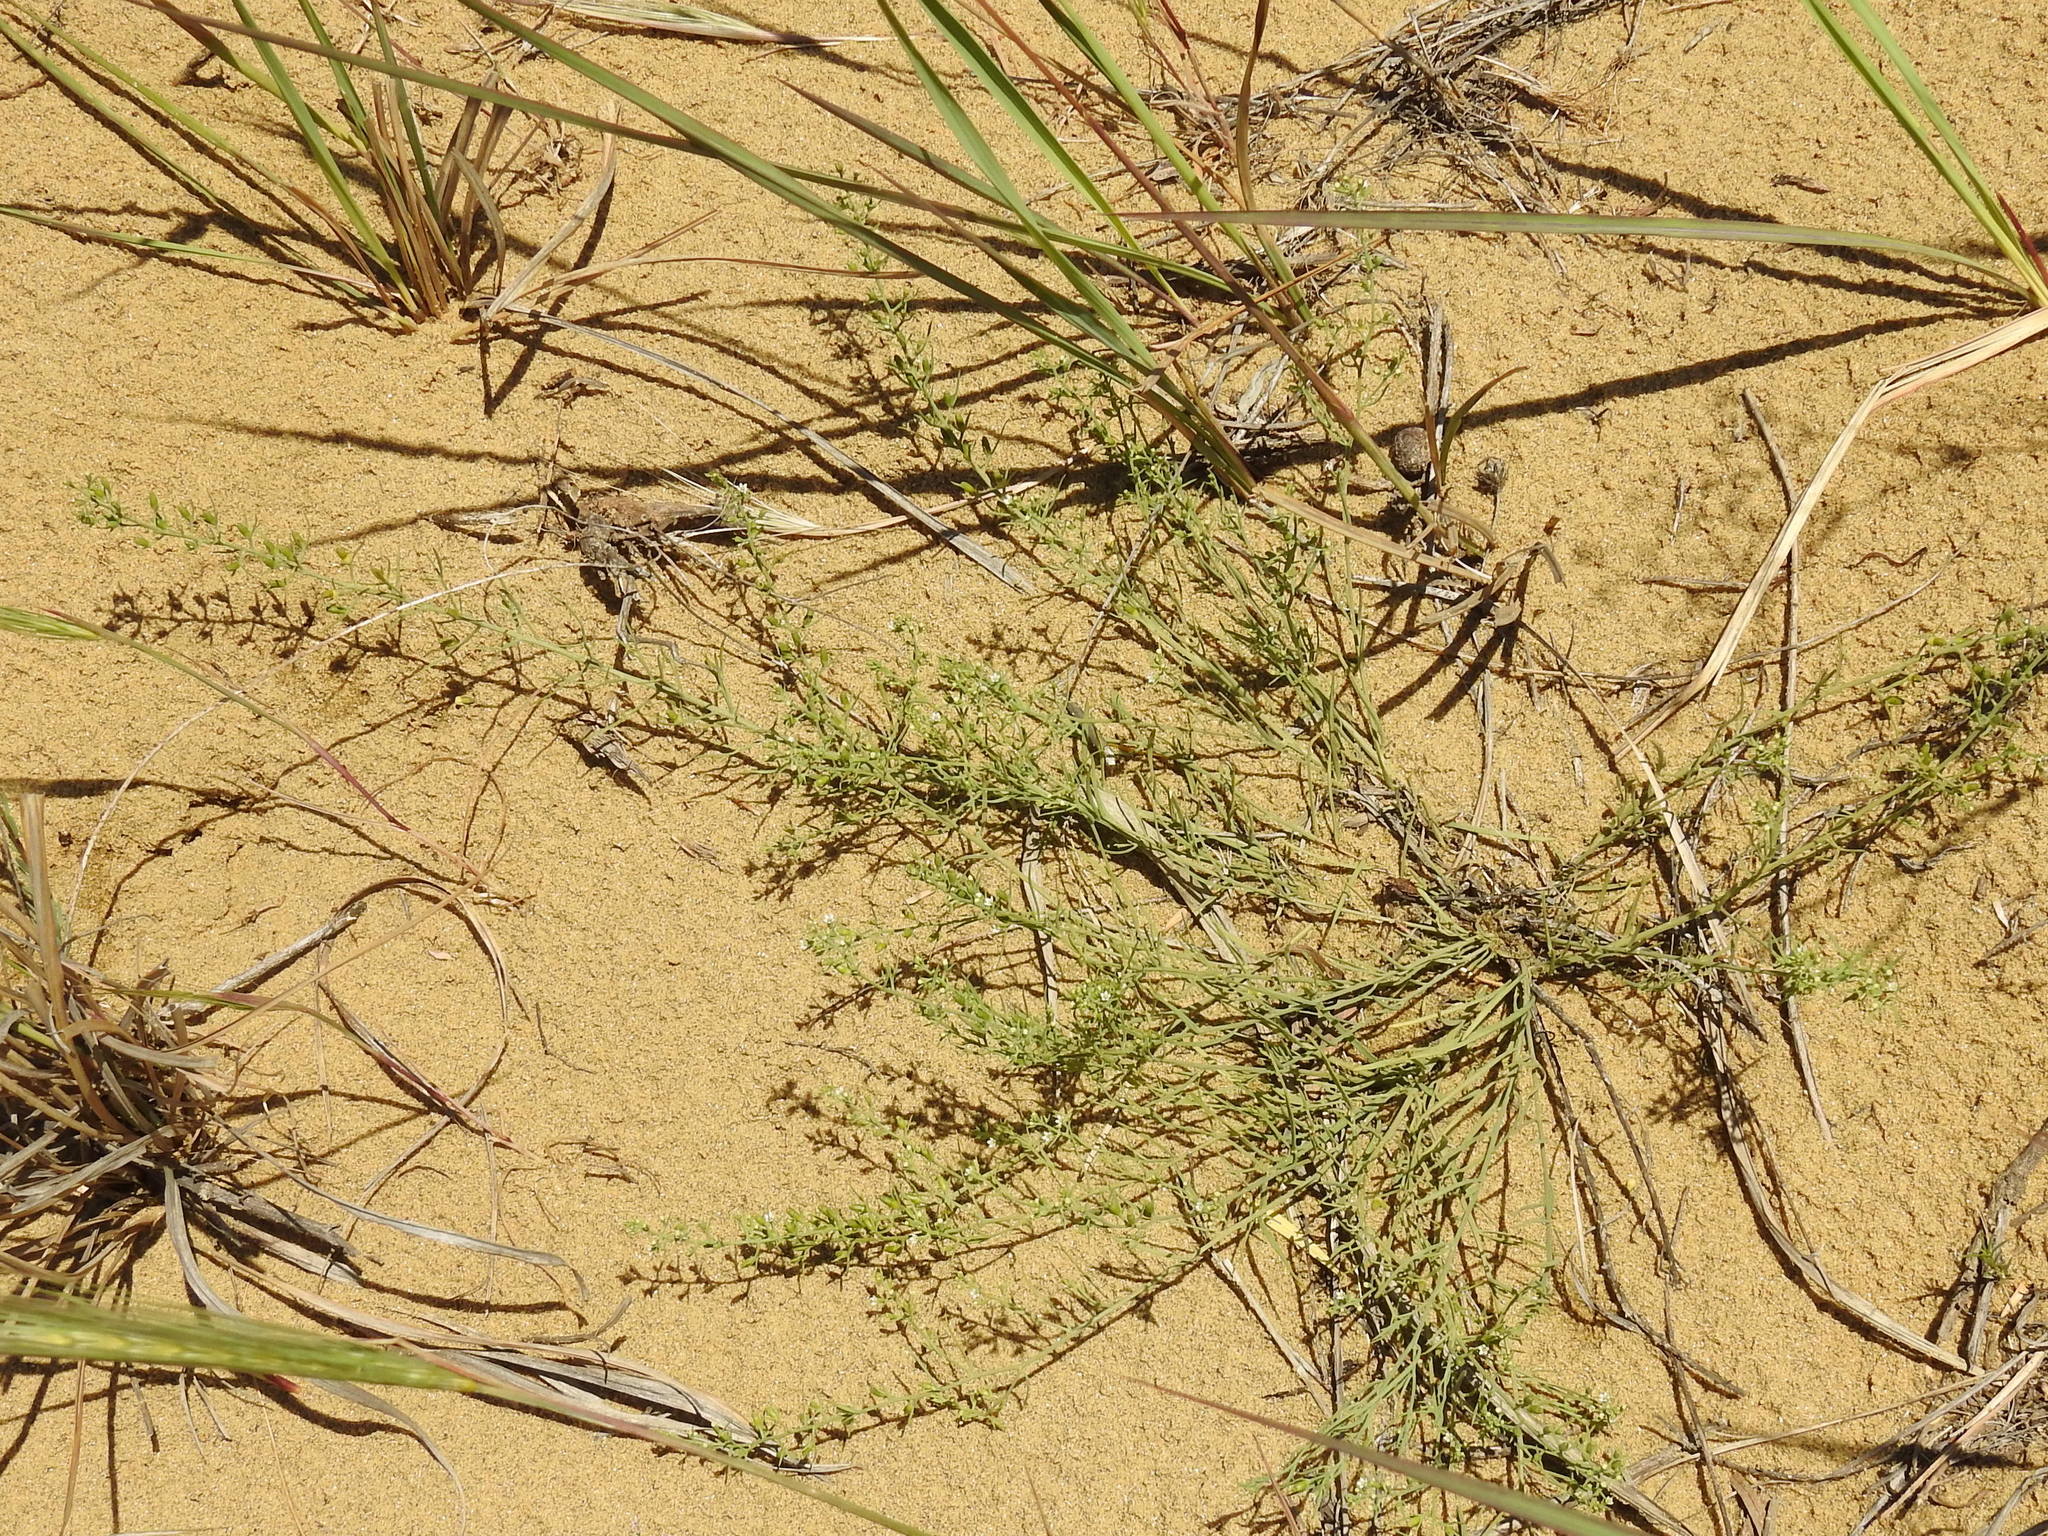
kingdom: Plantae
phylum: Tracheophyta
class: Magnoliopsida
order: Santalales
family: Thesiaceae
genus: Thesium
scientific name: Thesium maritimum
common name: Coastal bastard toad-flax
